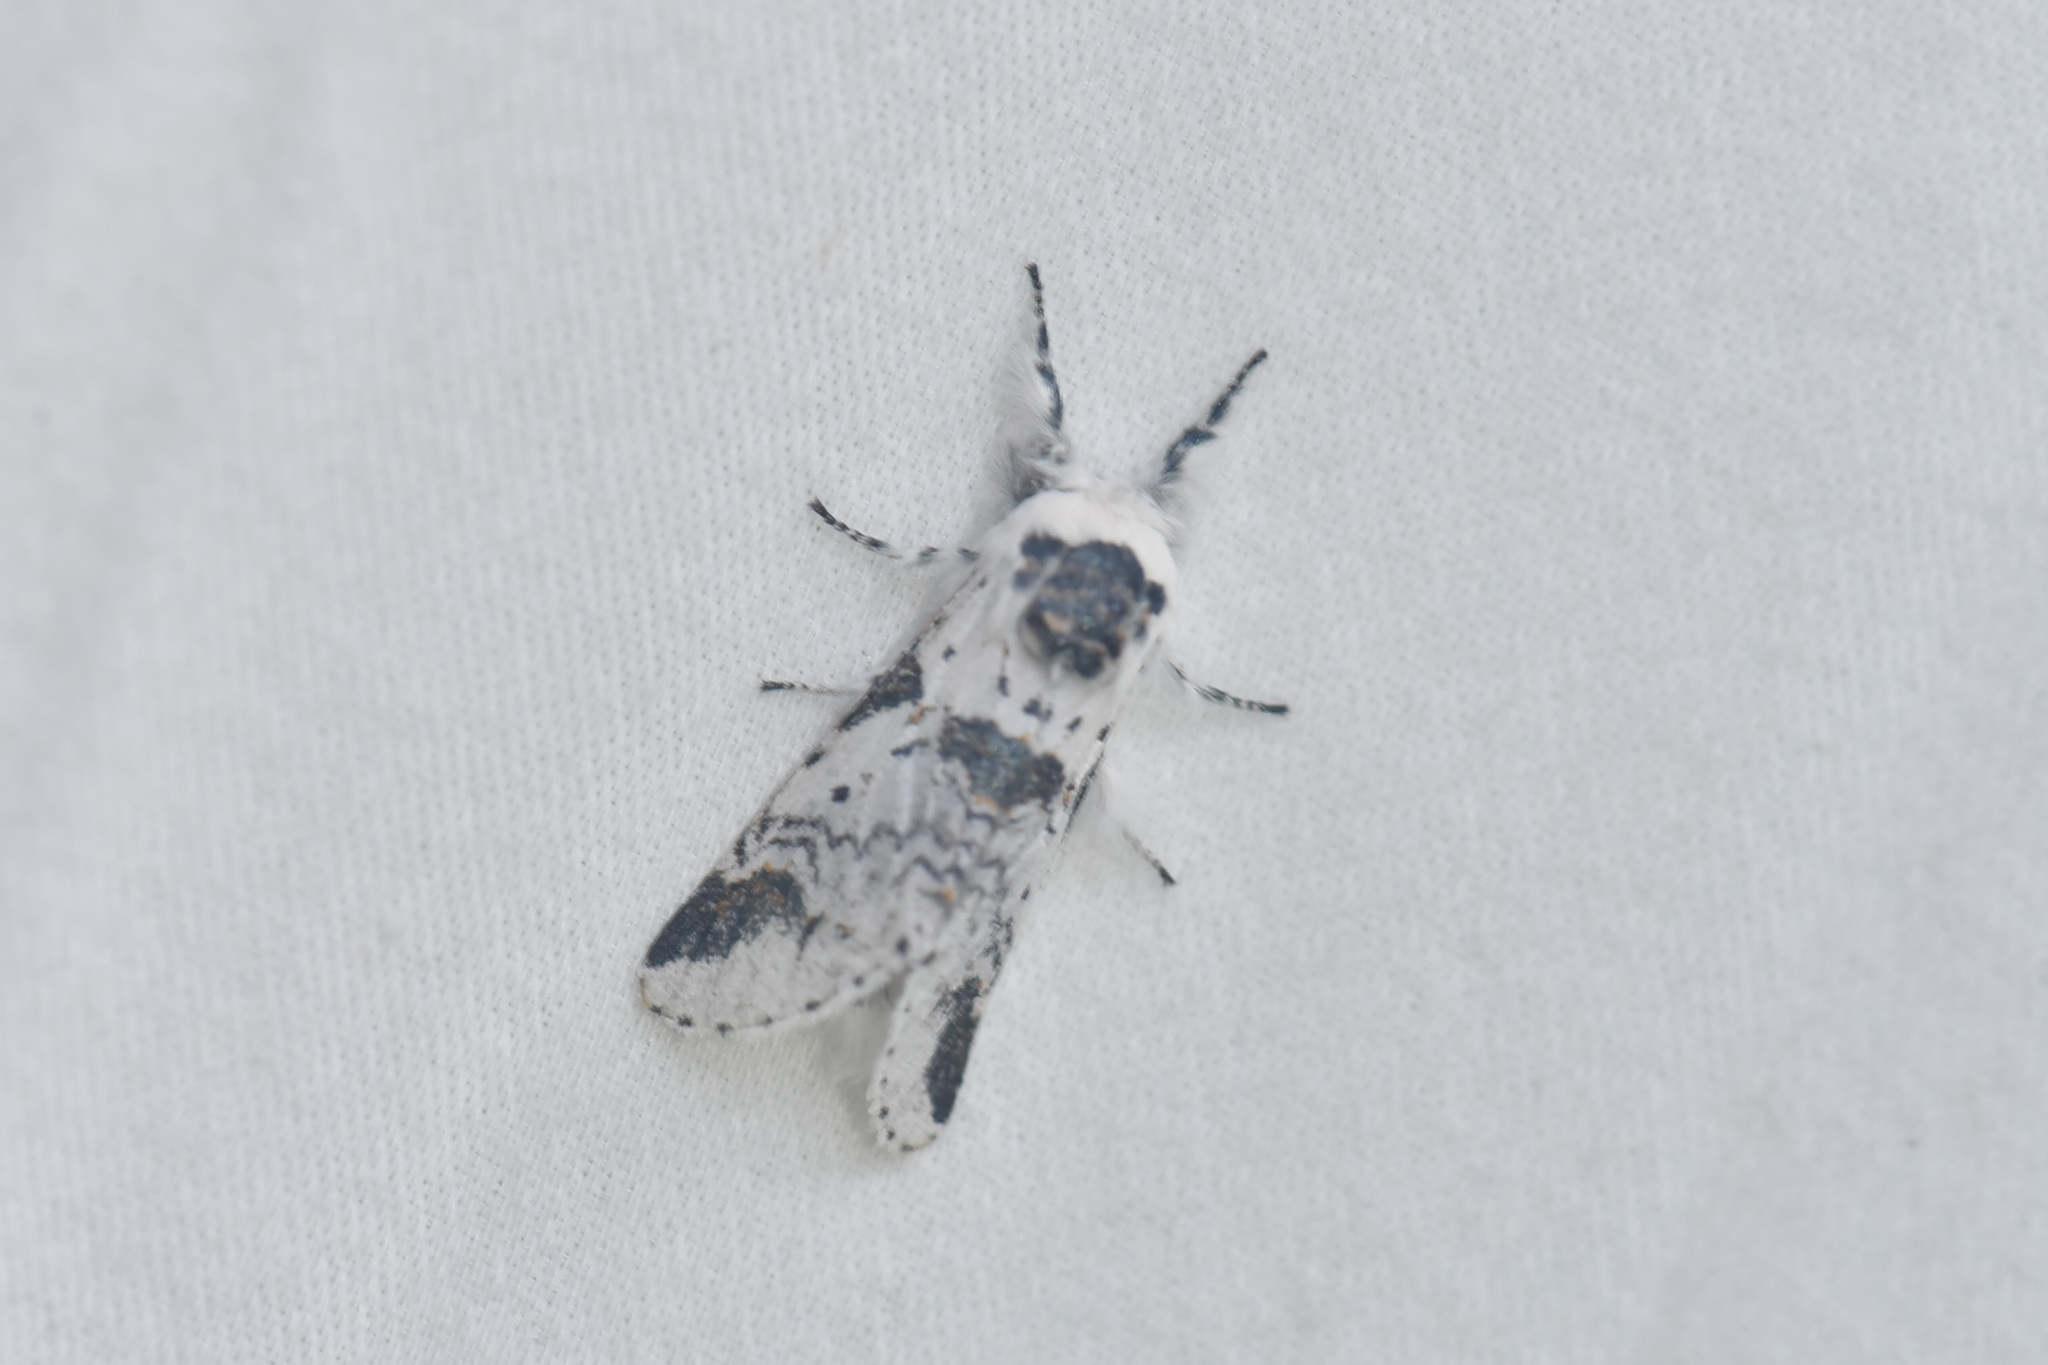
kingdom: Animalia
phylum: Arthropoda
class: Insecta
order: Lepidoptera
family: Notodontidae
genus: Furcula
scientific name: Furcula scolopendrina
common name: Zigzag furcula moth
